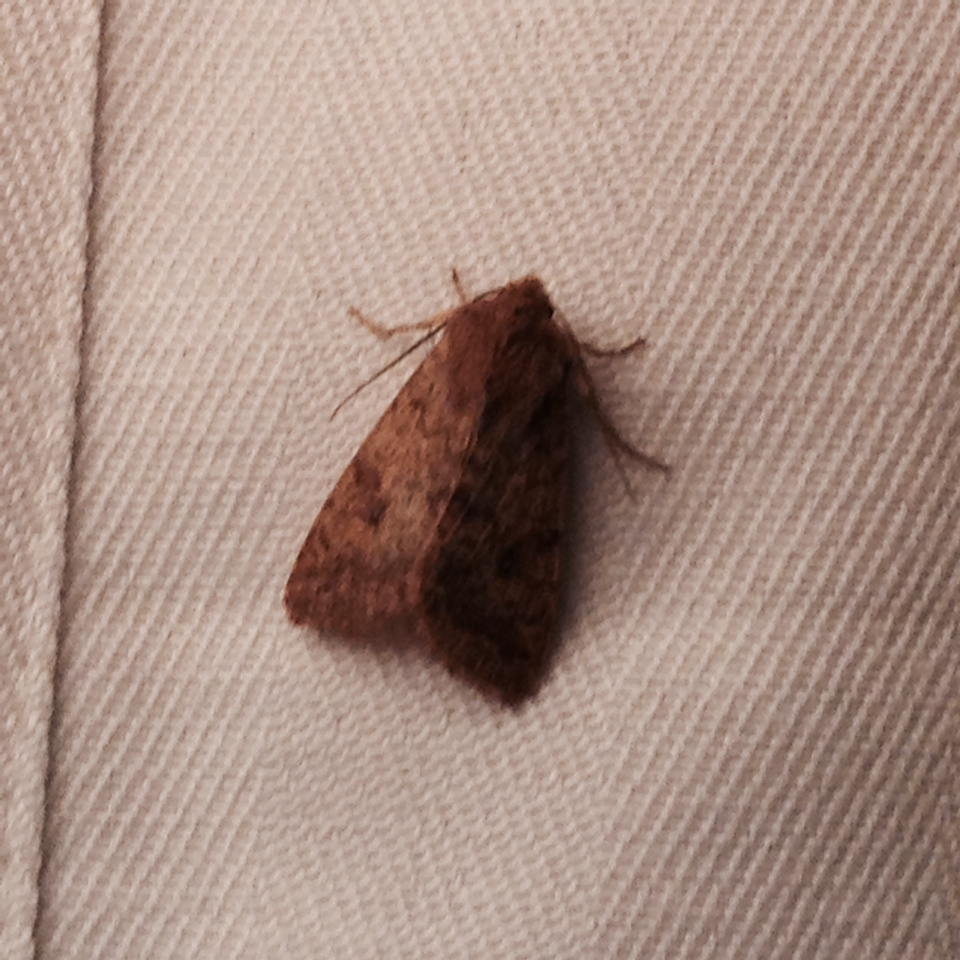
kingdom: Animalia
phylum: Arthropoda
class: Insecta
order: Lepidoptera
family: Noctuidae
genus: Caradrina
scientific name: Caradrina morpheus
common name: Mottled rustic
